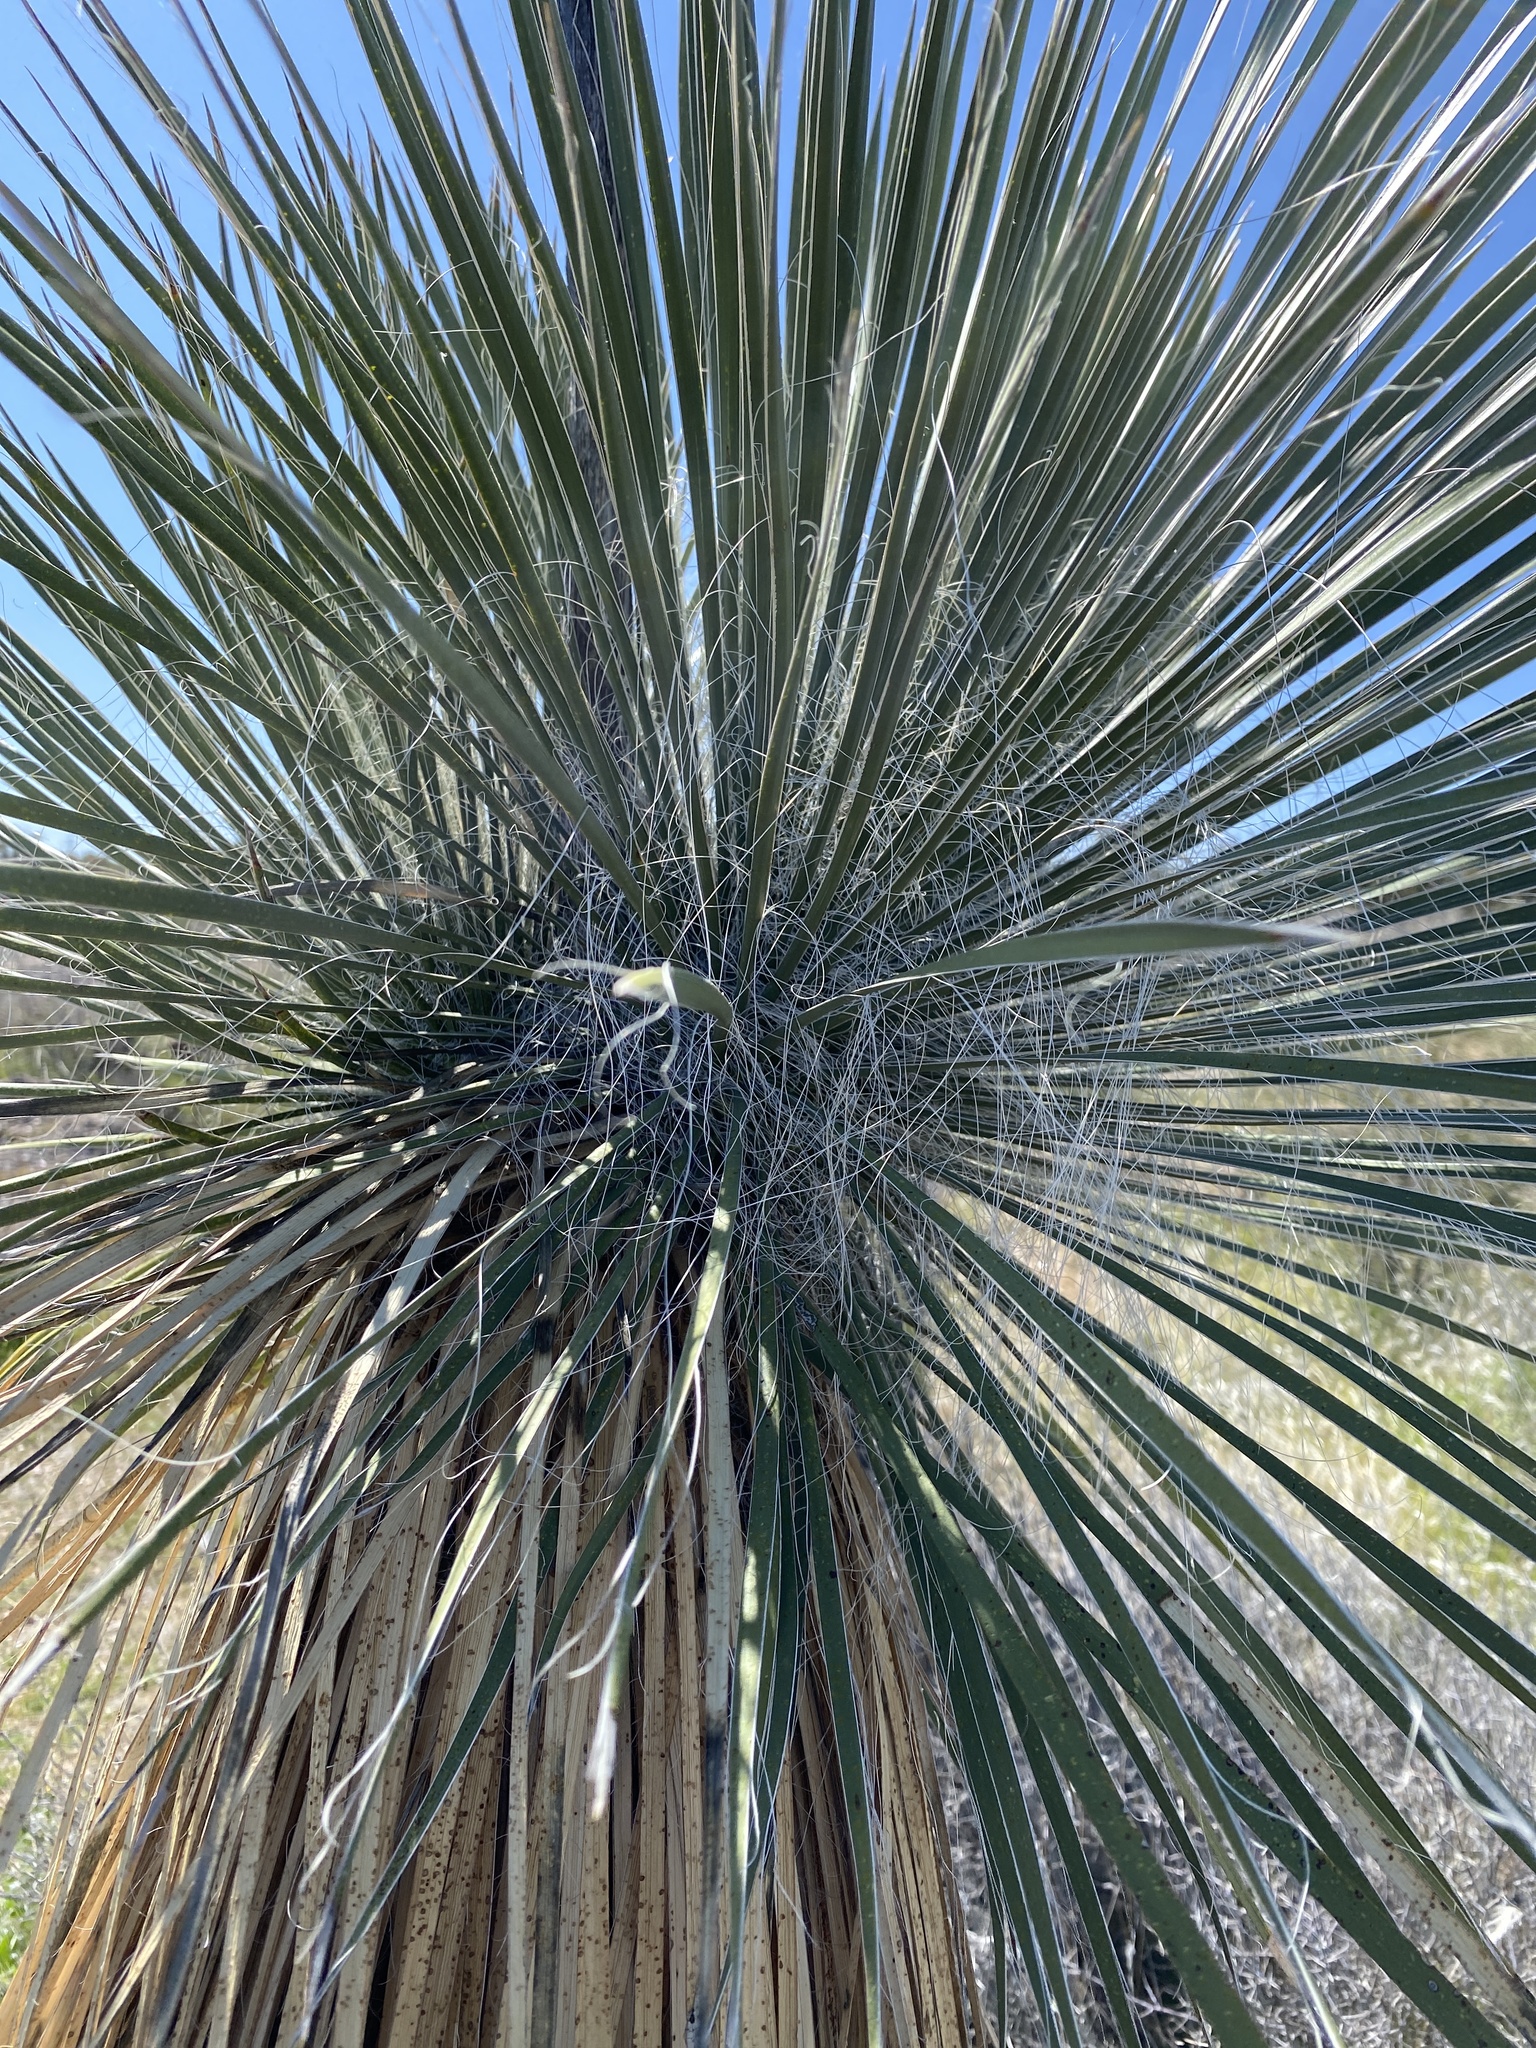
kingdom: Plantae
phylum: Tracheophyta
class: Liliopsida
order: Asparagales
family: Asparagaceae
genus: Yucca
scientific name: Yucca elata
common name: Palmella
